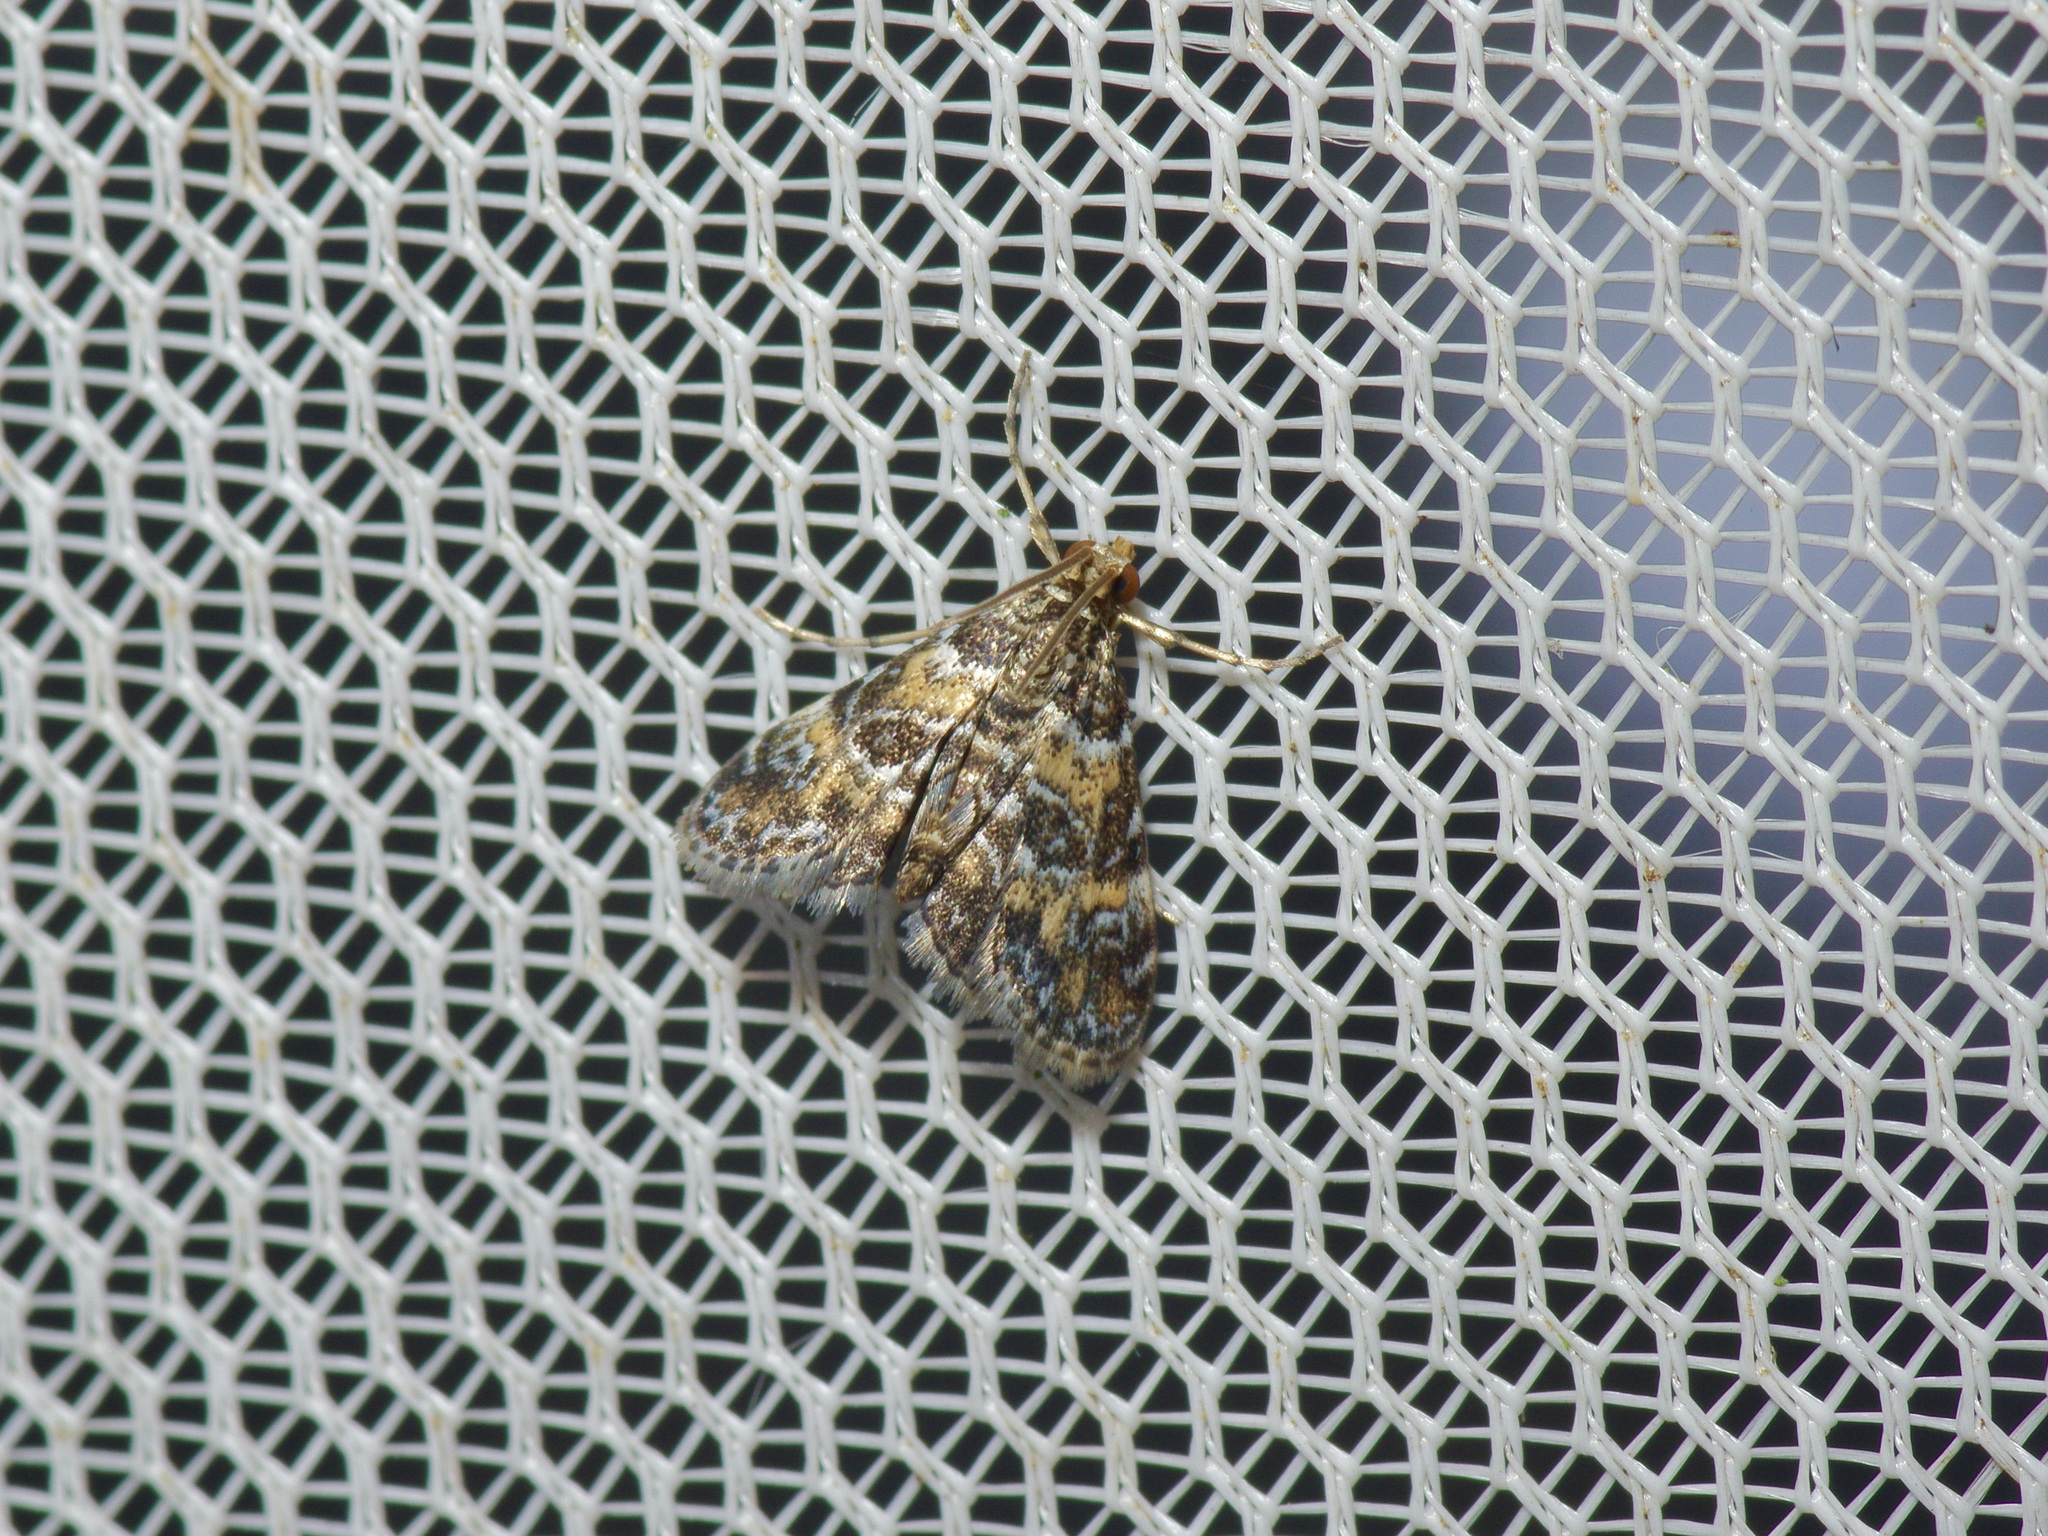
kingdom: Animalia
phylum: Arthropoda
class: Insecta
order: Lepidoptera
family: Crambidae
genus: Elophila
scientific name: Elophila obliteralis
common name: Waterlily leafcutter moth
